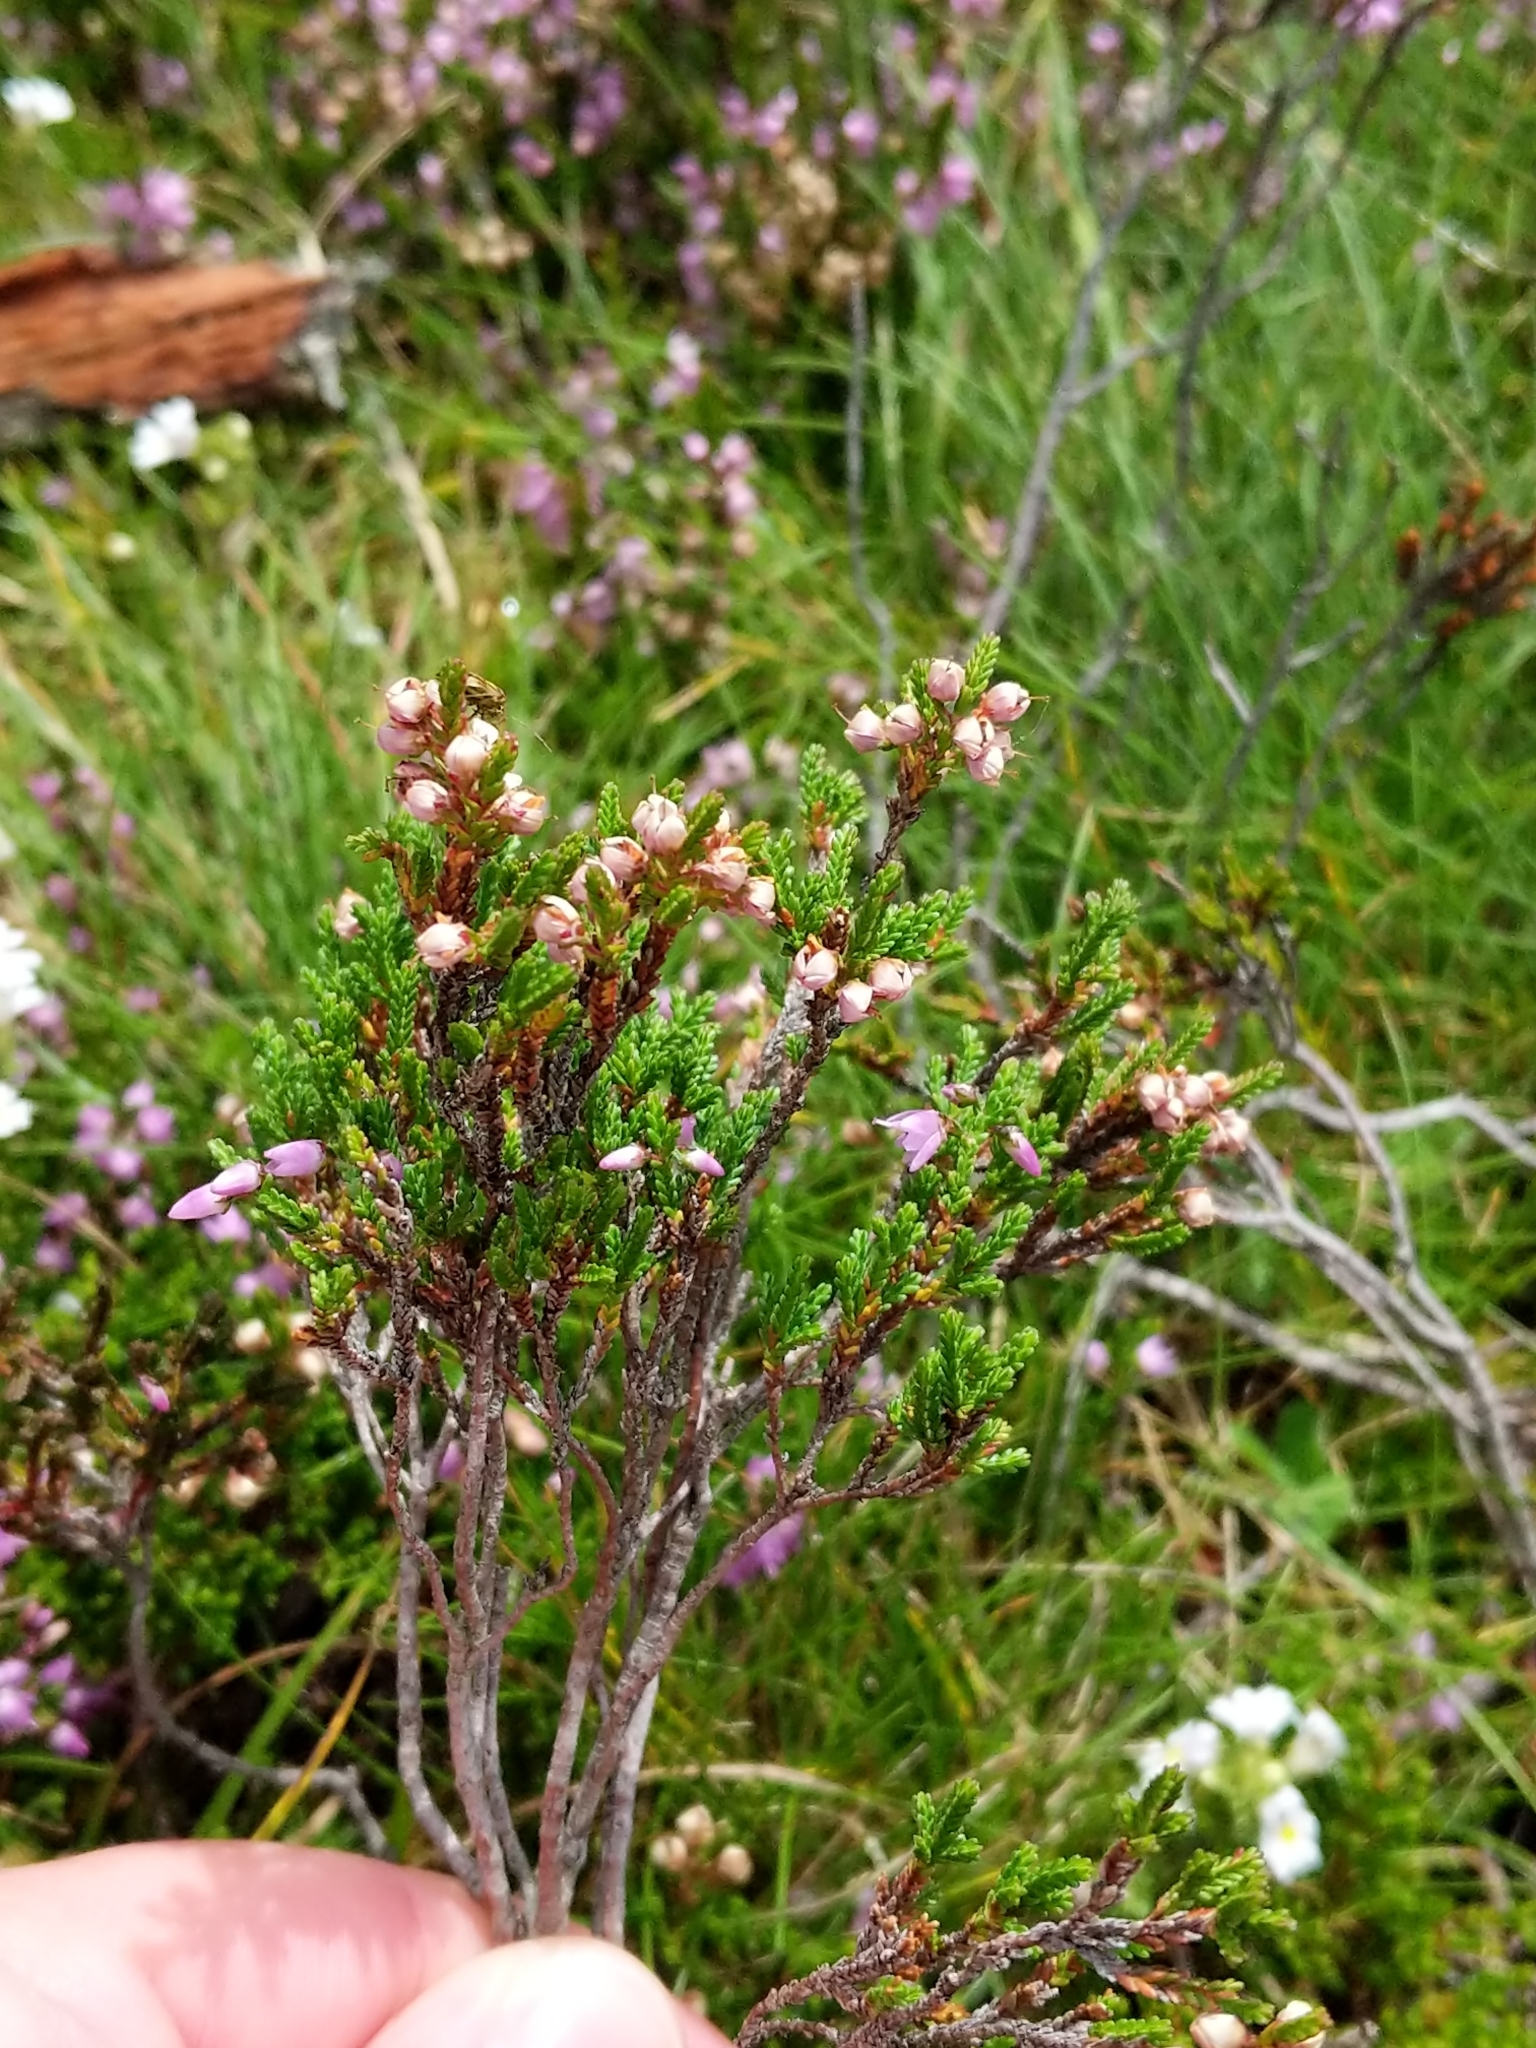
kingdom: Plantae
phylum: Tracheophyta
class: Magnoliopsida
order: Ericales
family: Ericaceae
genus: Calluna
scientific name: Calluna vulgaris
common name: Heather
